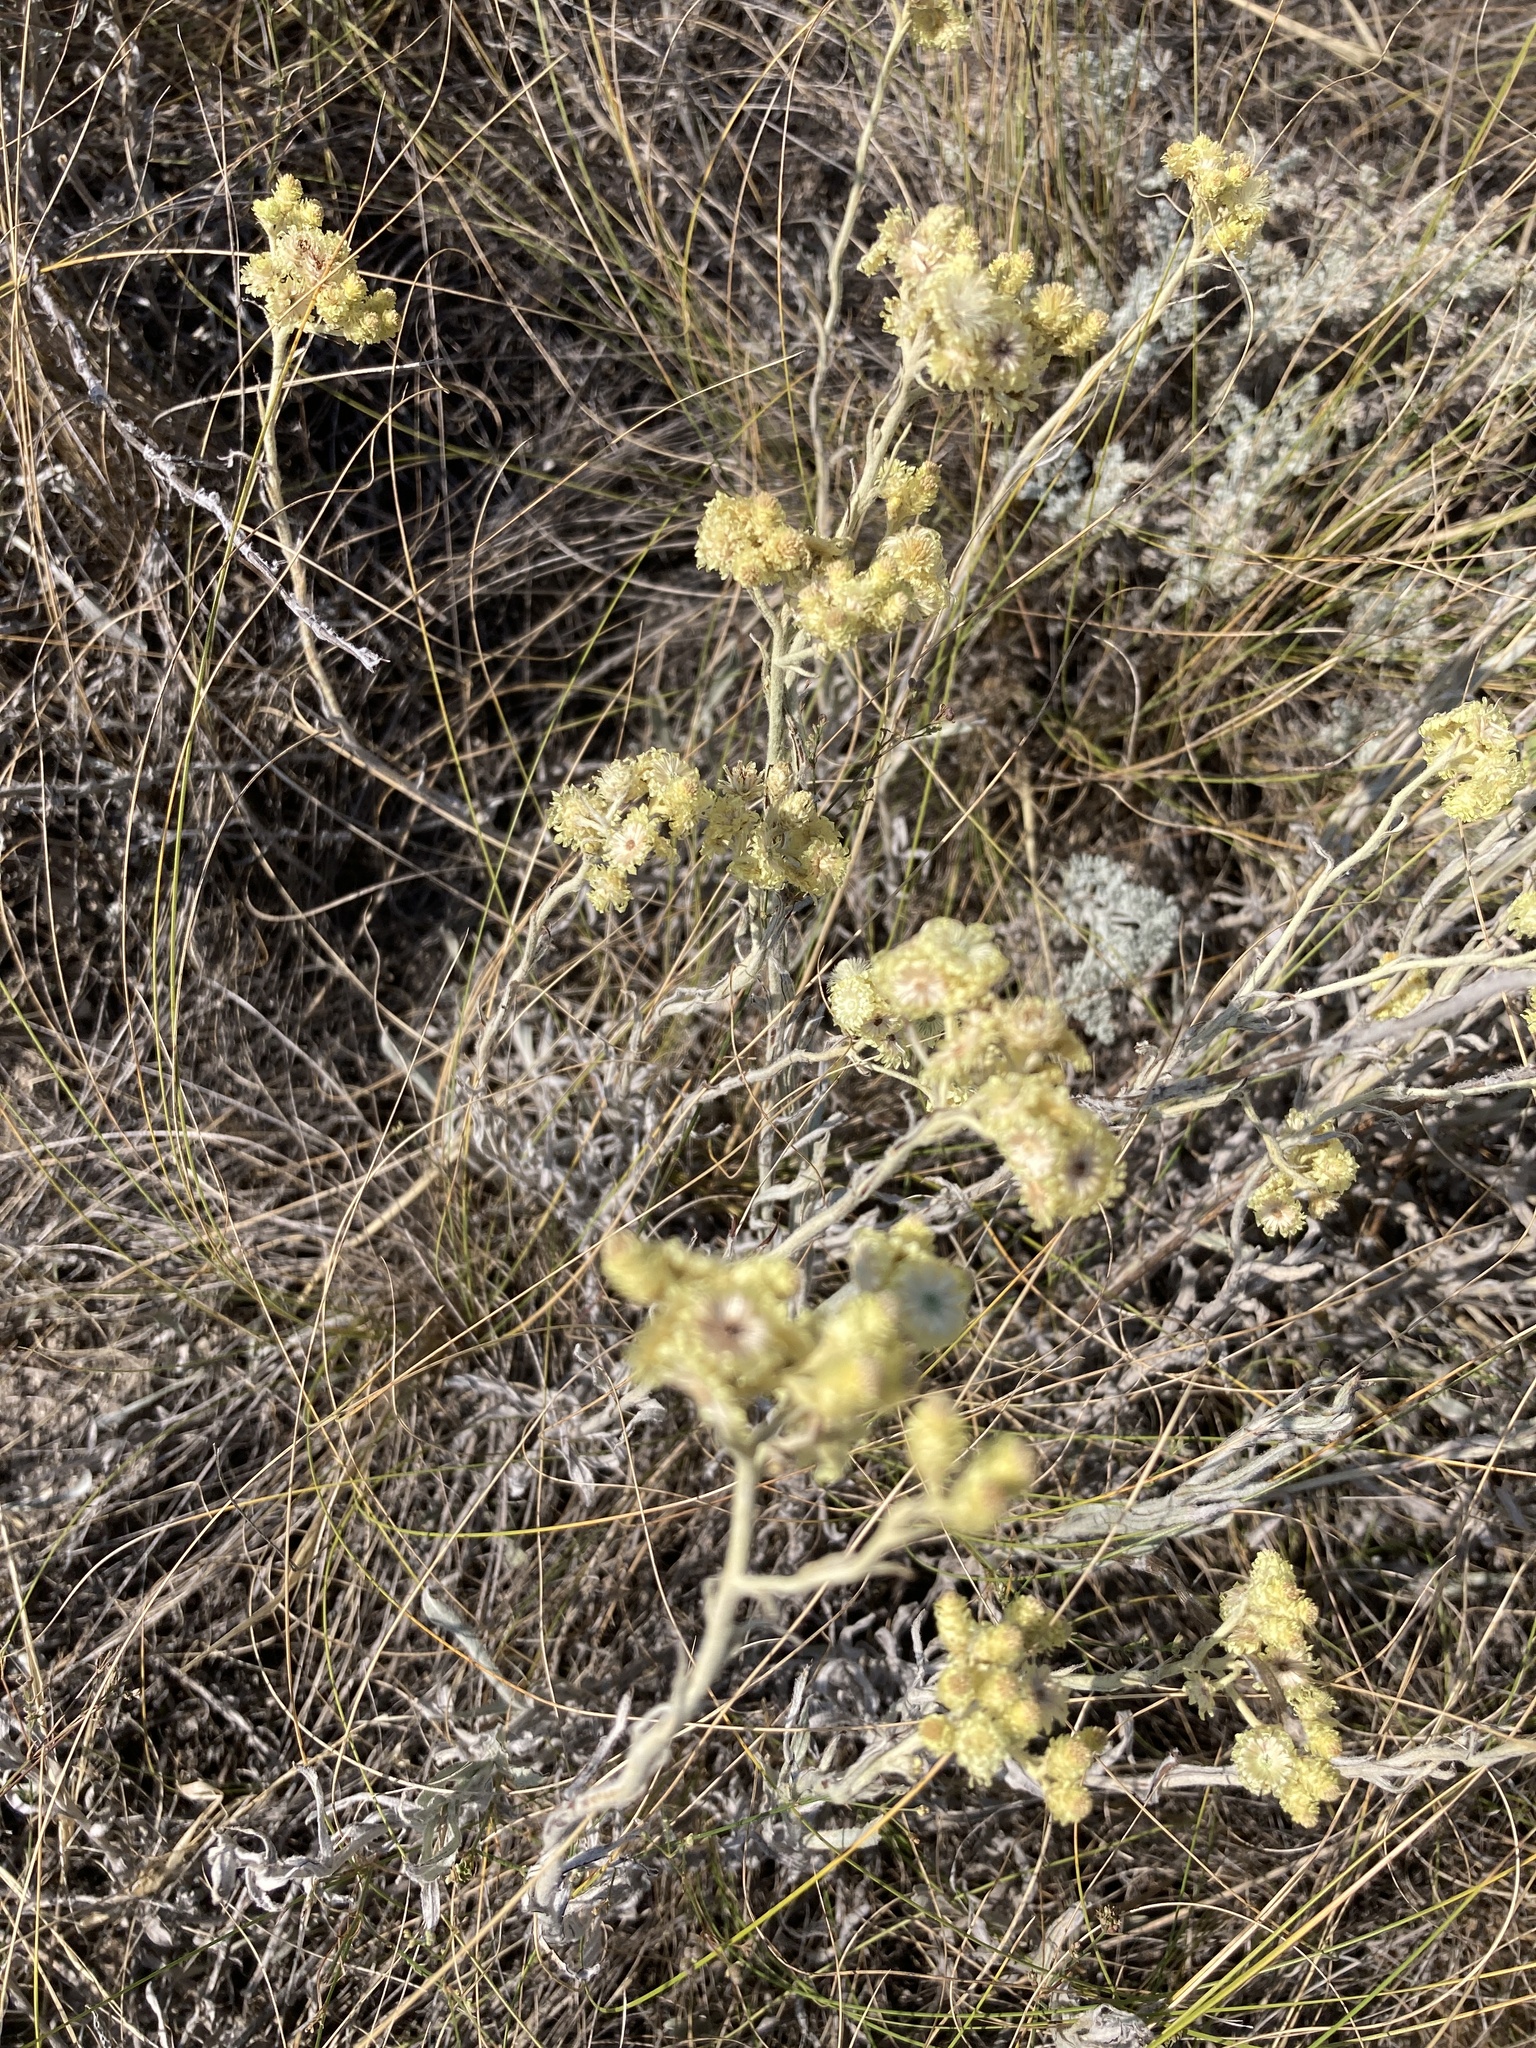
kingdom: Plantae
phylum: Tracheophyta
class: Magnoliopsida
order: Asterales
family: Asteraceae
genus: Helichrysum
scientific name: Helichrysum arenarium
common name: Strawflower
